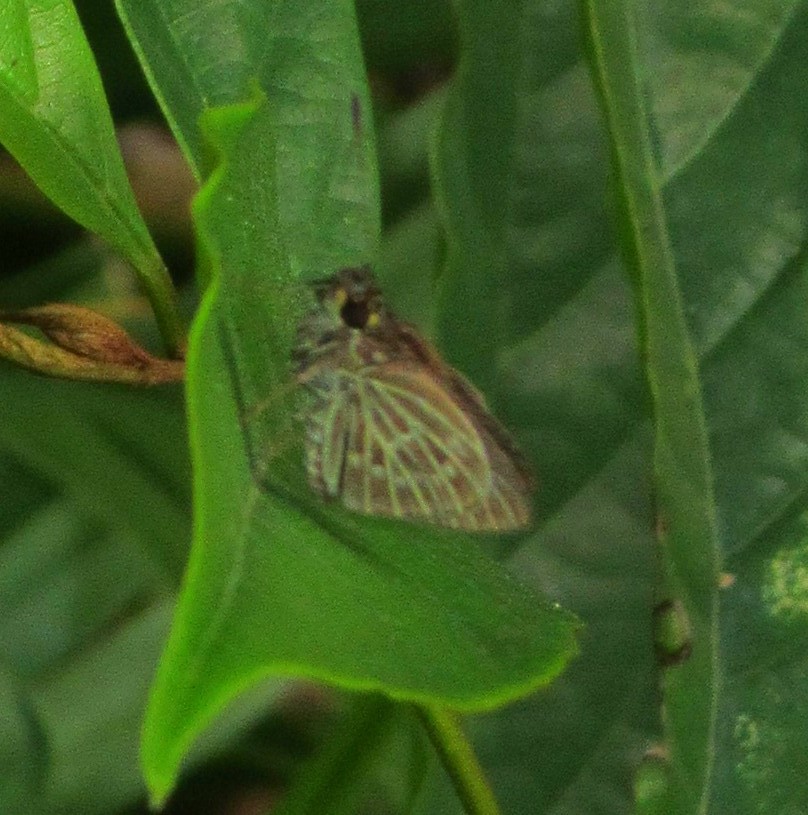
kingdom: Animalia
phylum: Arthropoda
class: Insecta
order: Lepidoptera
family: Hesperiidae
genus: Callimormus
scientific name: Callimormus interpunctata
